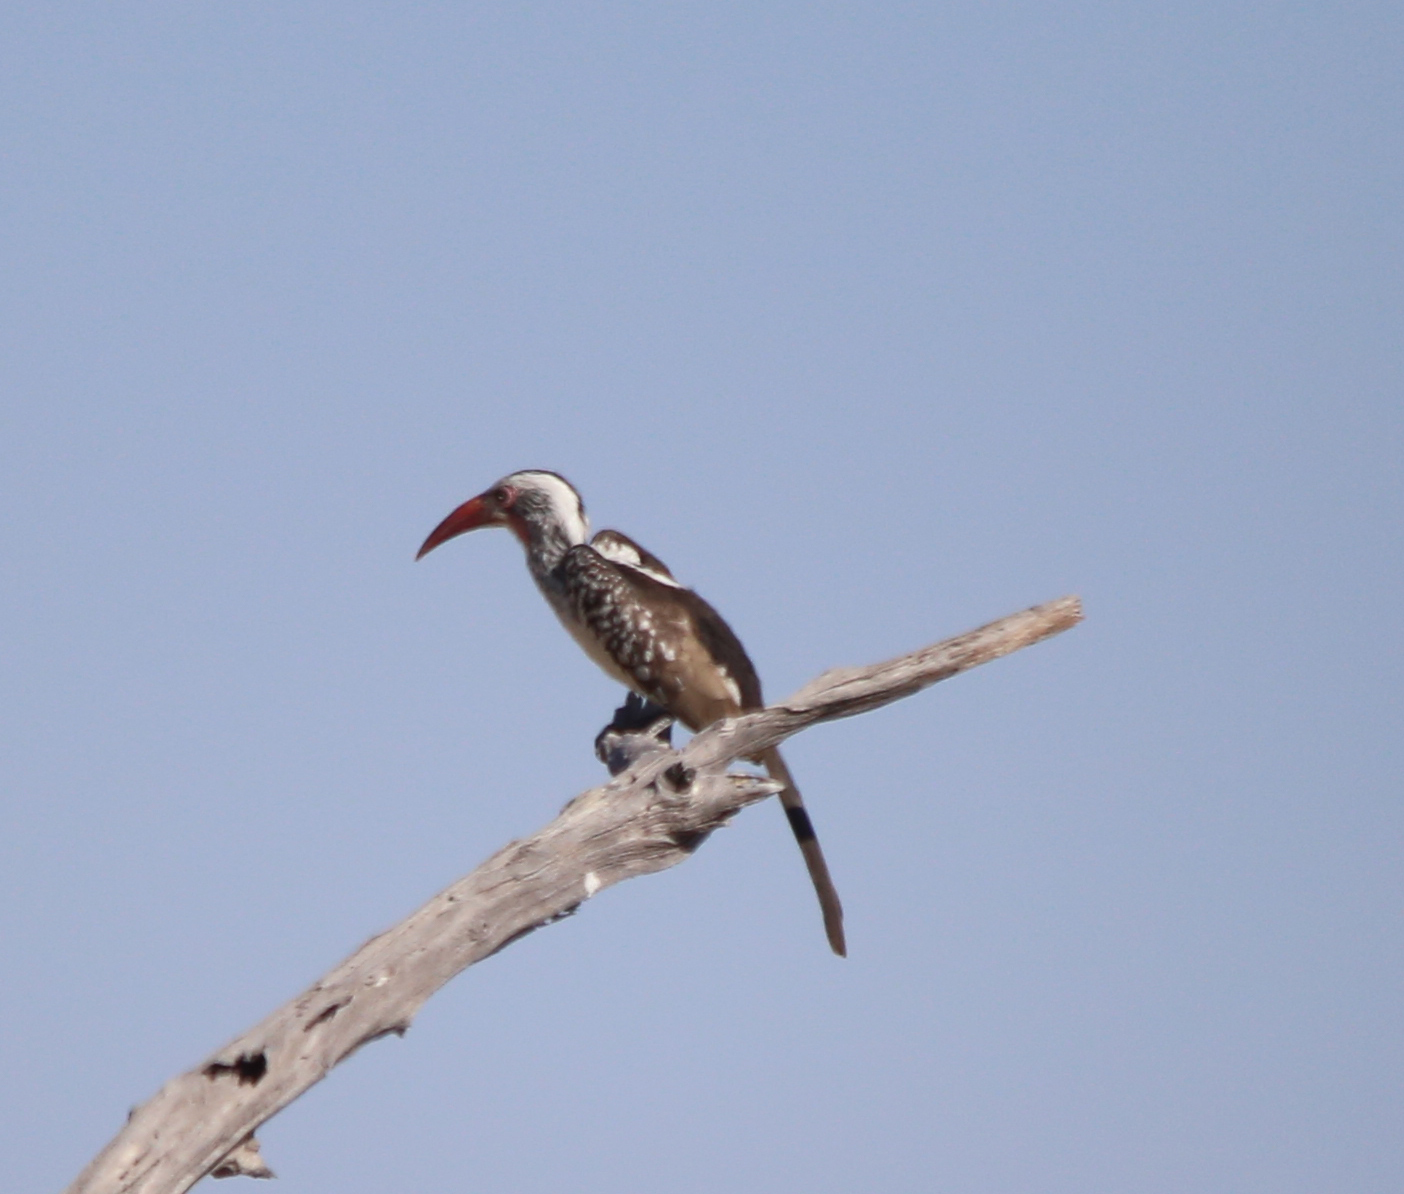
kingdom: Animalia
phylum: Chordata
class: Aves
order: Bucerotiformes
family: Bucerotidae
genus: Tockus
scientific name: Tockus rufirostris
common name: Southern red-billed hornbill
